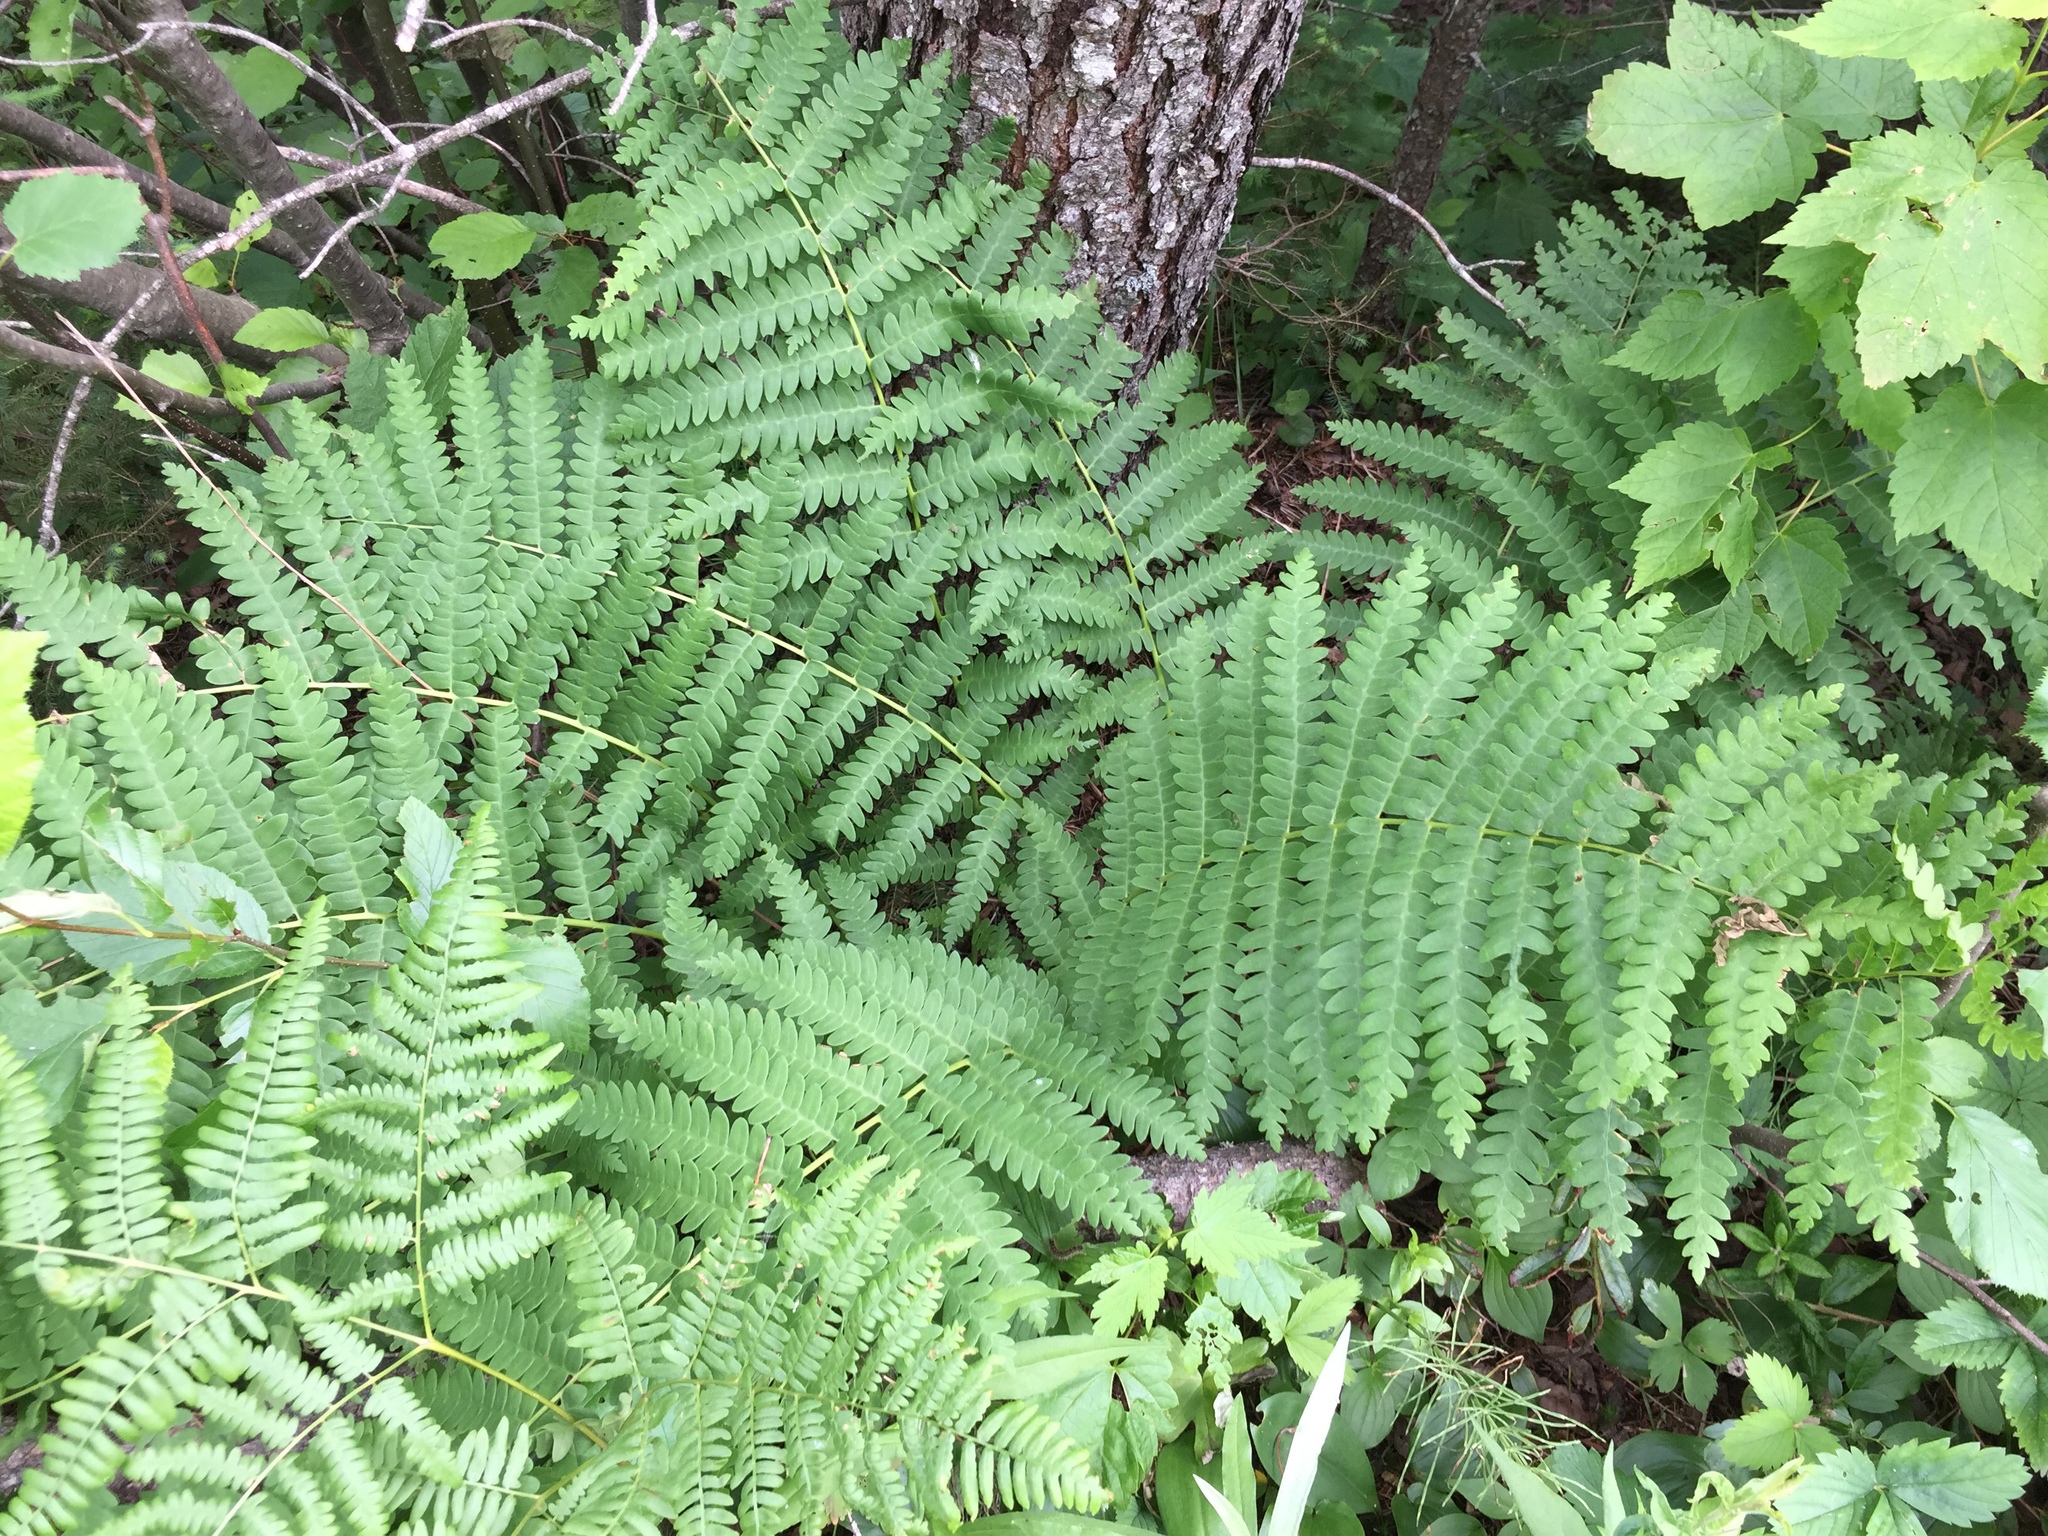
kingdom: Plantae
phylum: Tracheophyta
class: Polypodiopsida
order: Osmundales
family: Osmundaceae
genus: Claytosmunda
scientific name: Claytosmunda claytoniana
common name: Clayton's fern
